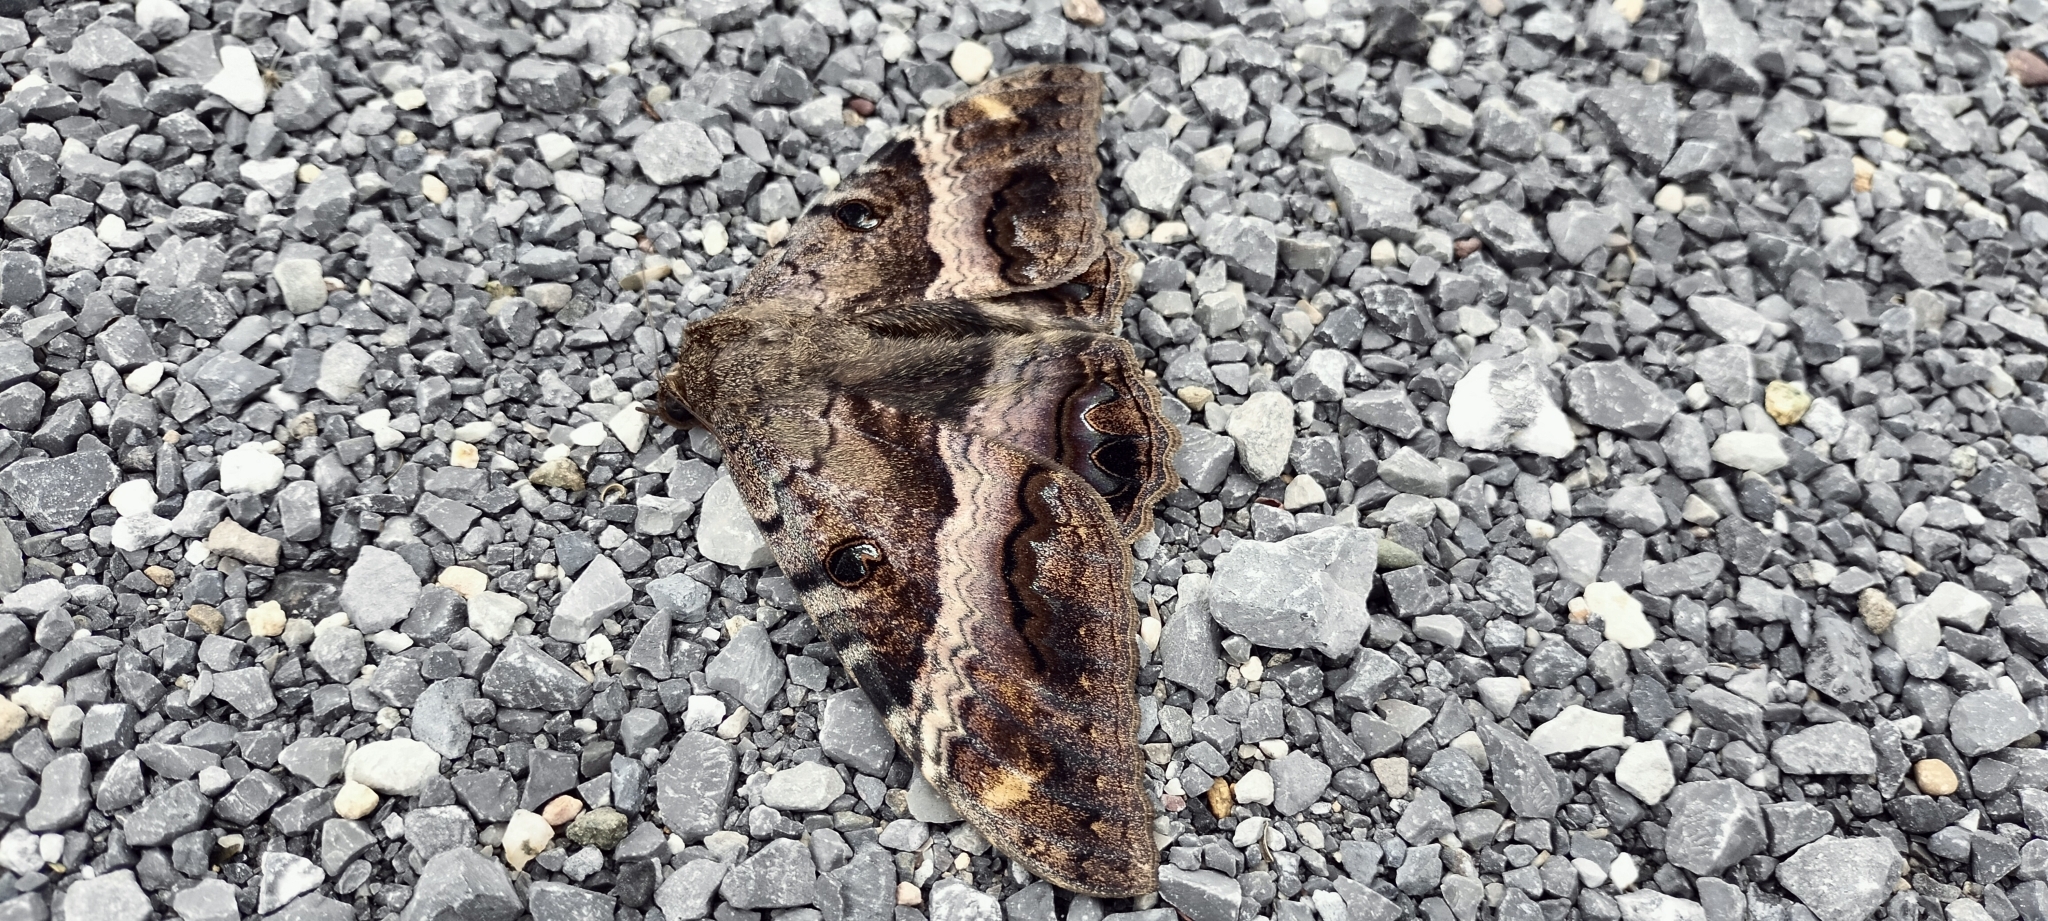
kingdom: Animalia
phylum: Arthropoda
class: Insecta
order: Lepidoptera
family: Erebidae
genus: Ascalapha
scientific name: Ascalapha odorata
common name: Black witch
